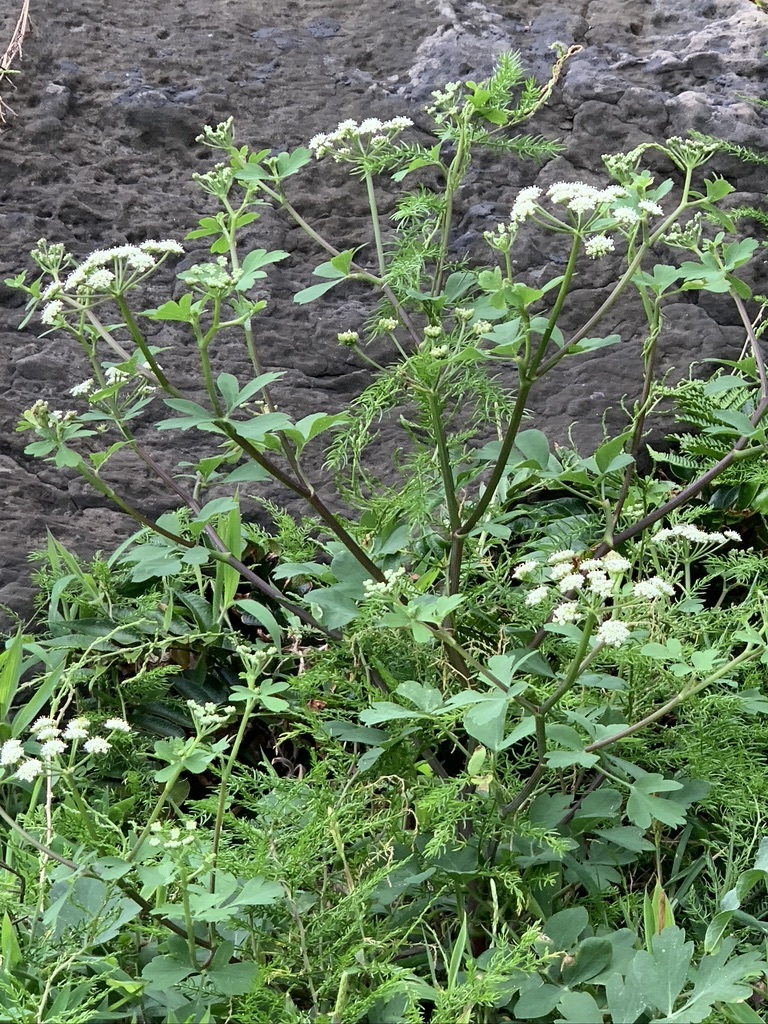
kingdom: Plantae
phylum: Tracheophyta
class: Magnoliopsida
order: Apiales
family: Apiaceae
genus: Peucedanum
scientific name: Peucedanum japonicum
